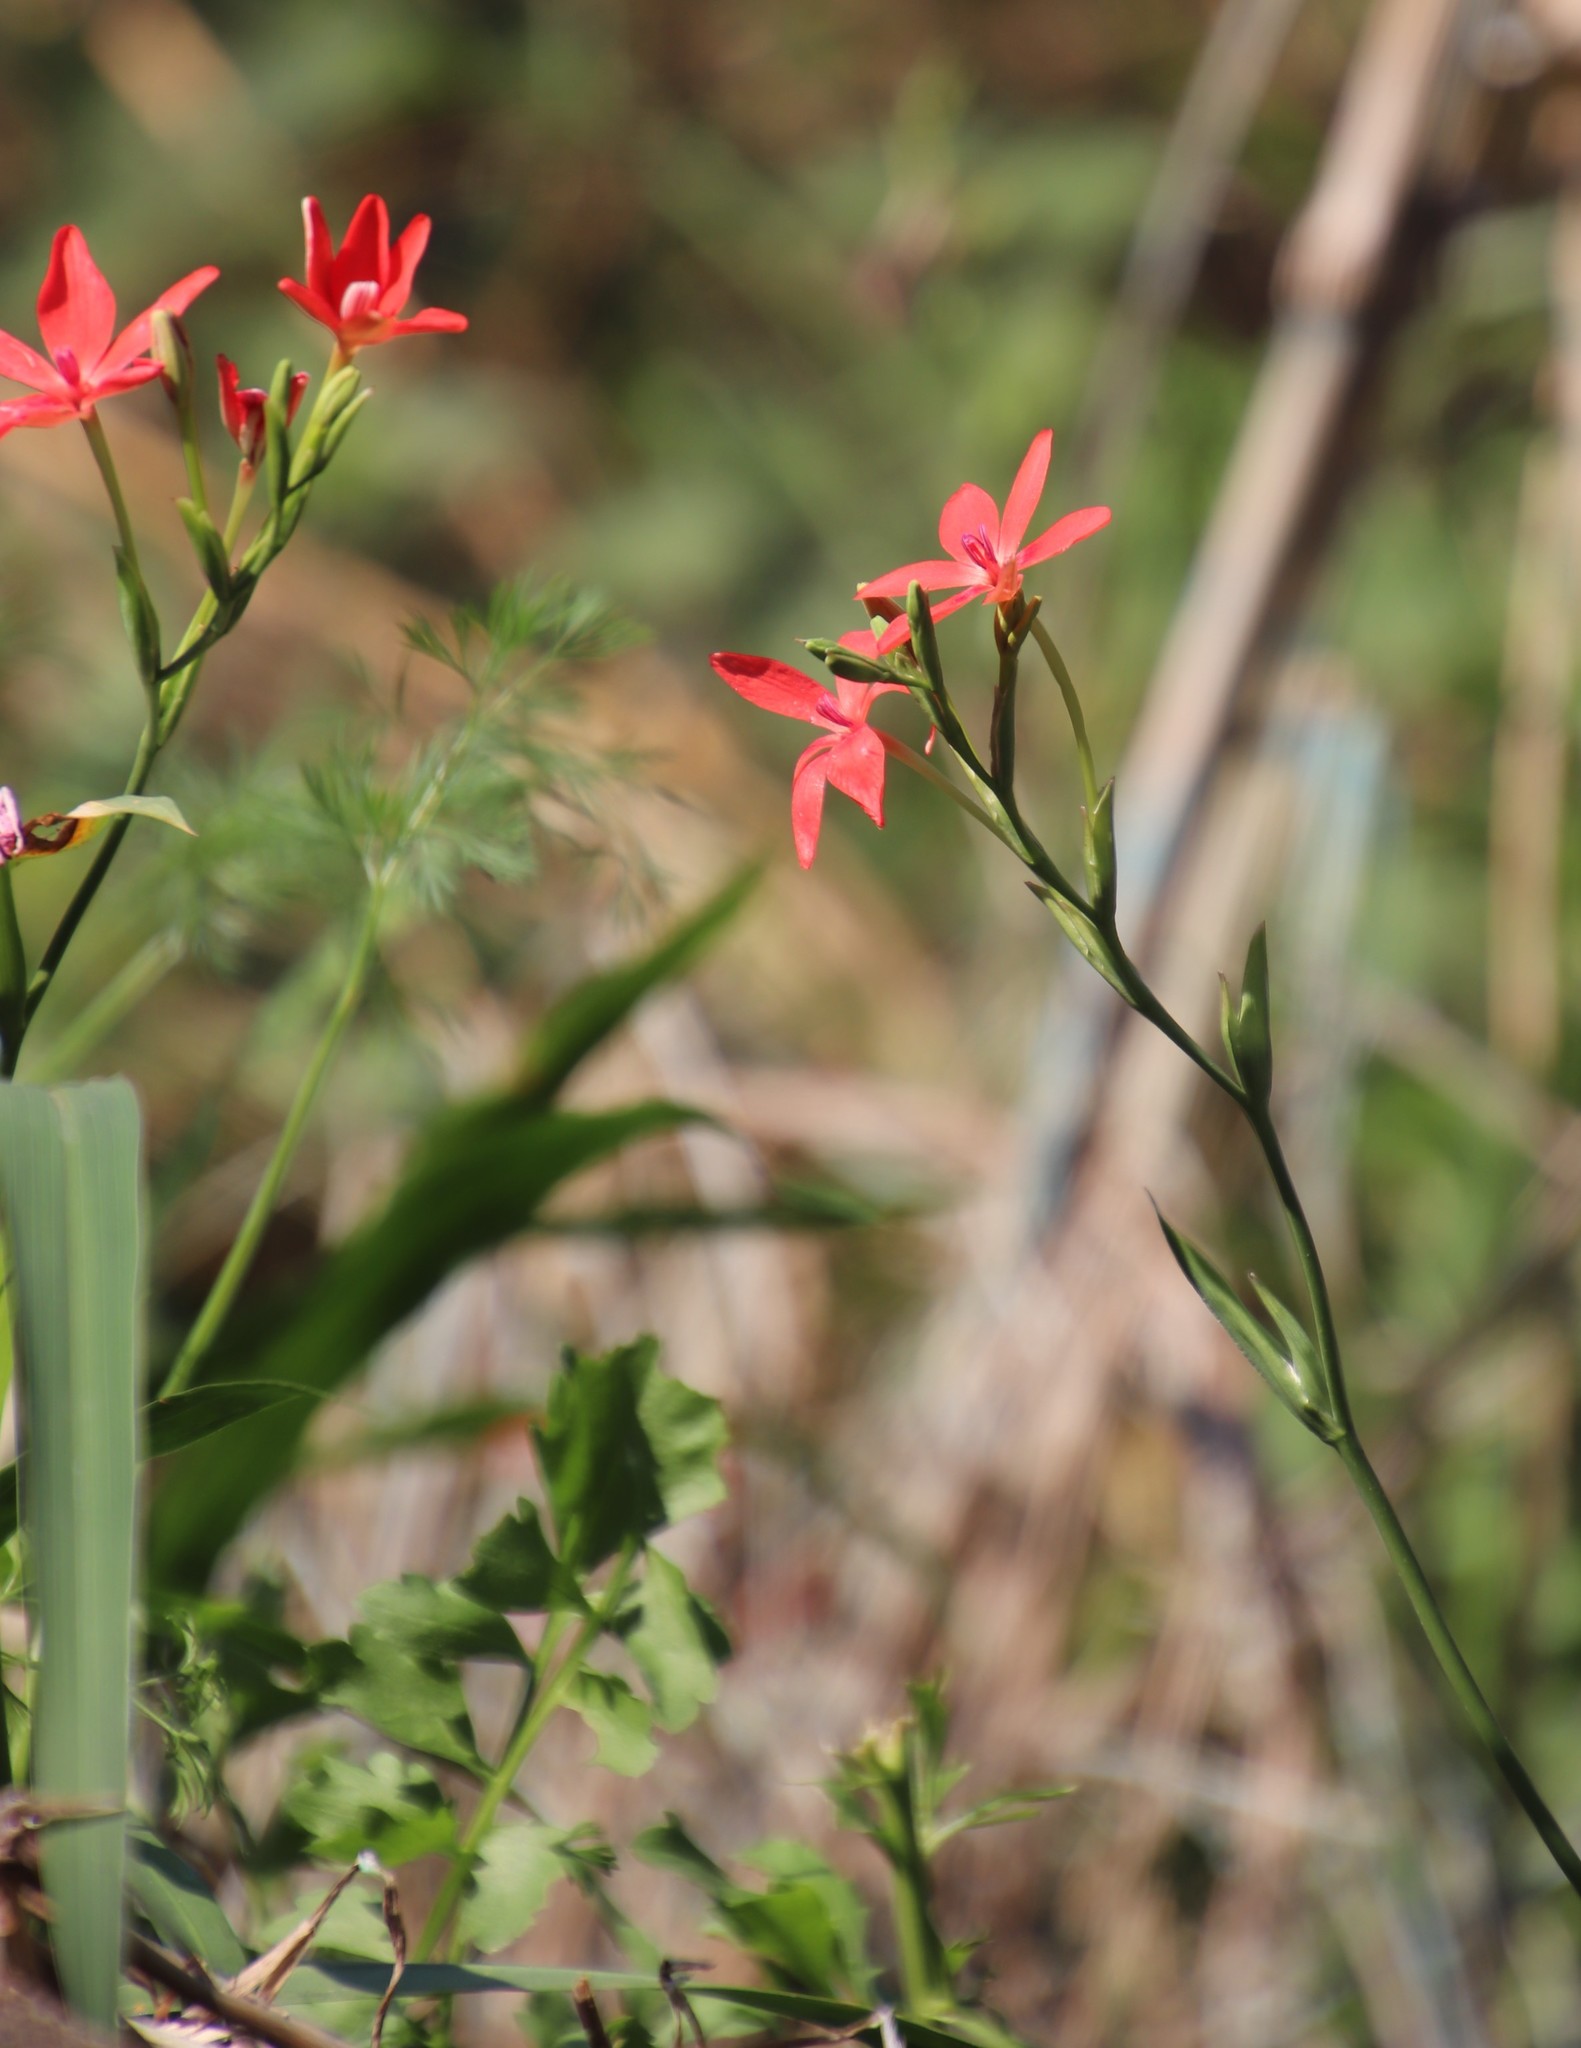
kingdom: Plantae
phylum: Tracheophyta
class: Liliopsida
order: Asparagales
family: Iridaceae
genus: Freesia
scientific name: Freesia laxa
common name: False freesia
